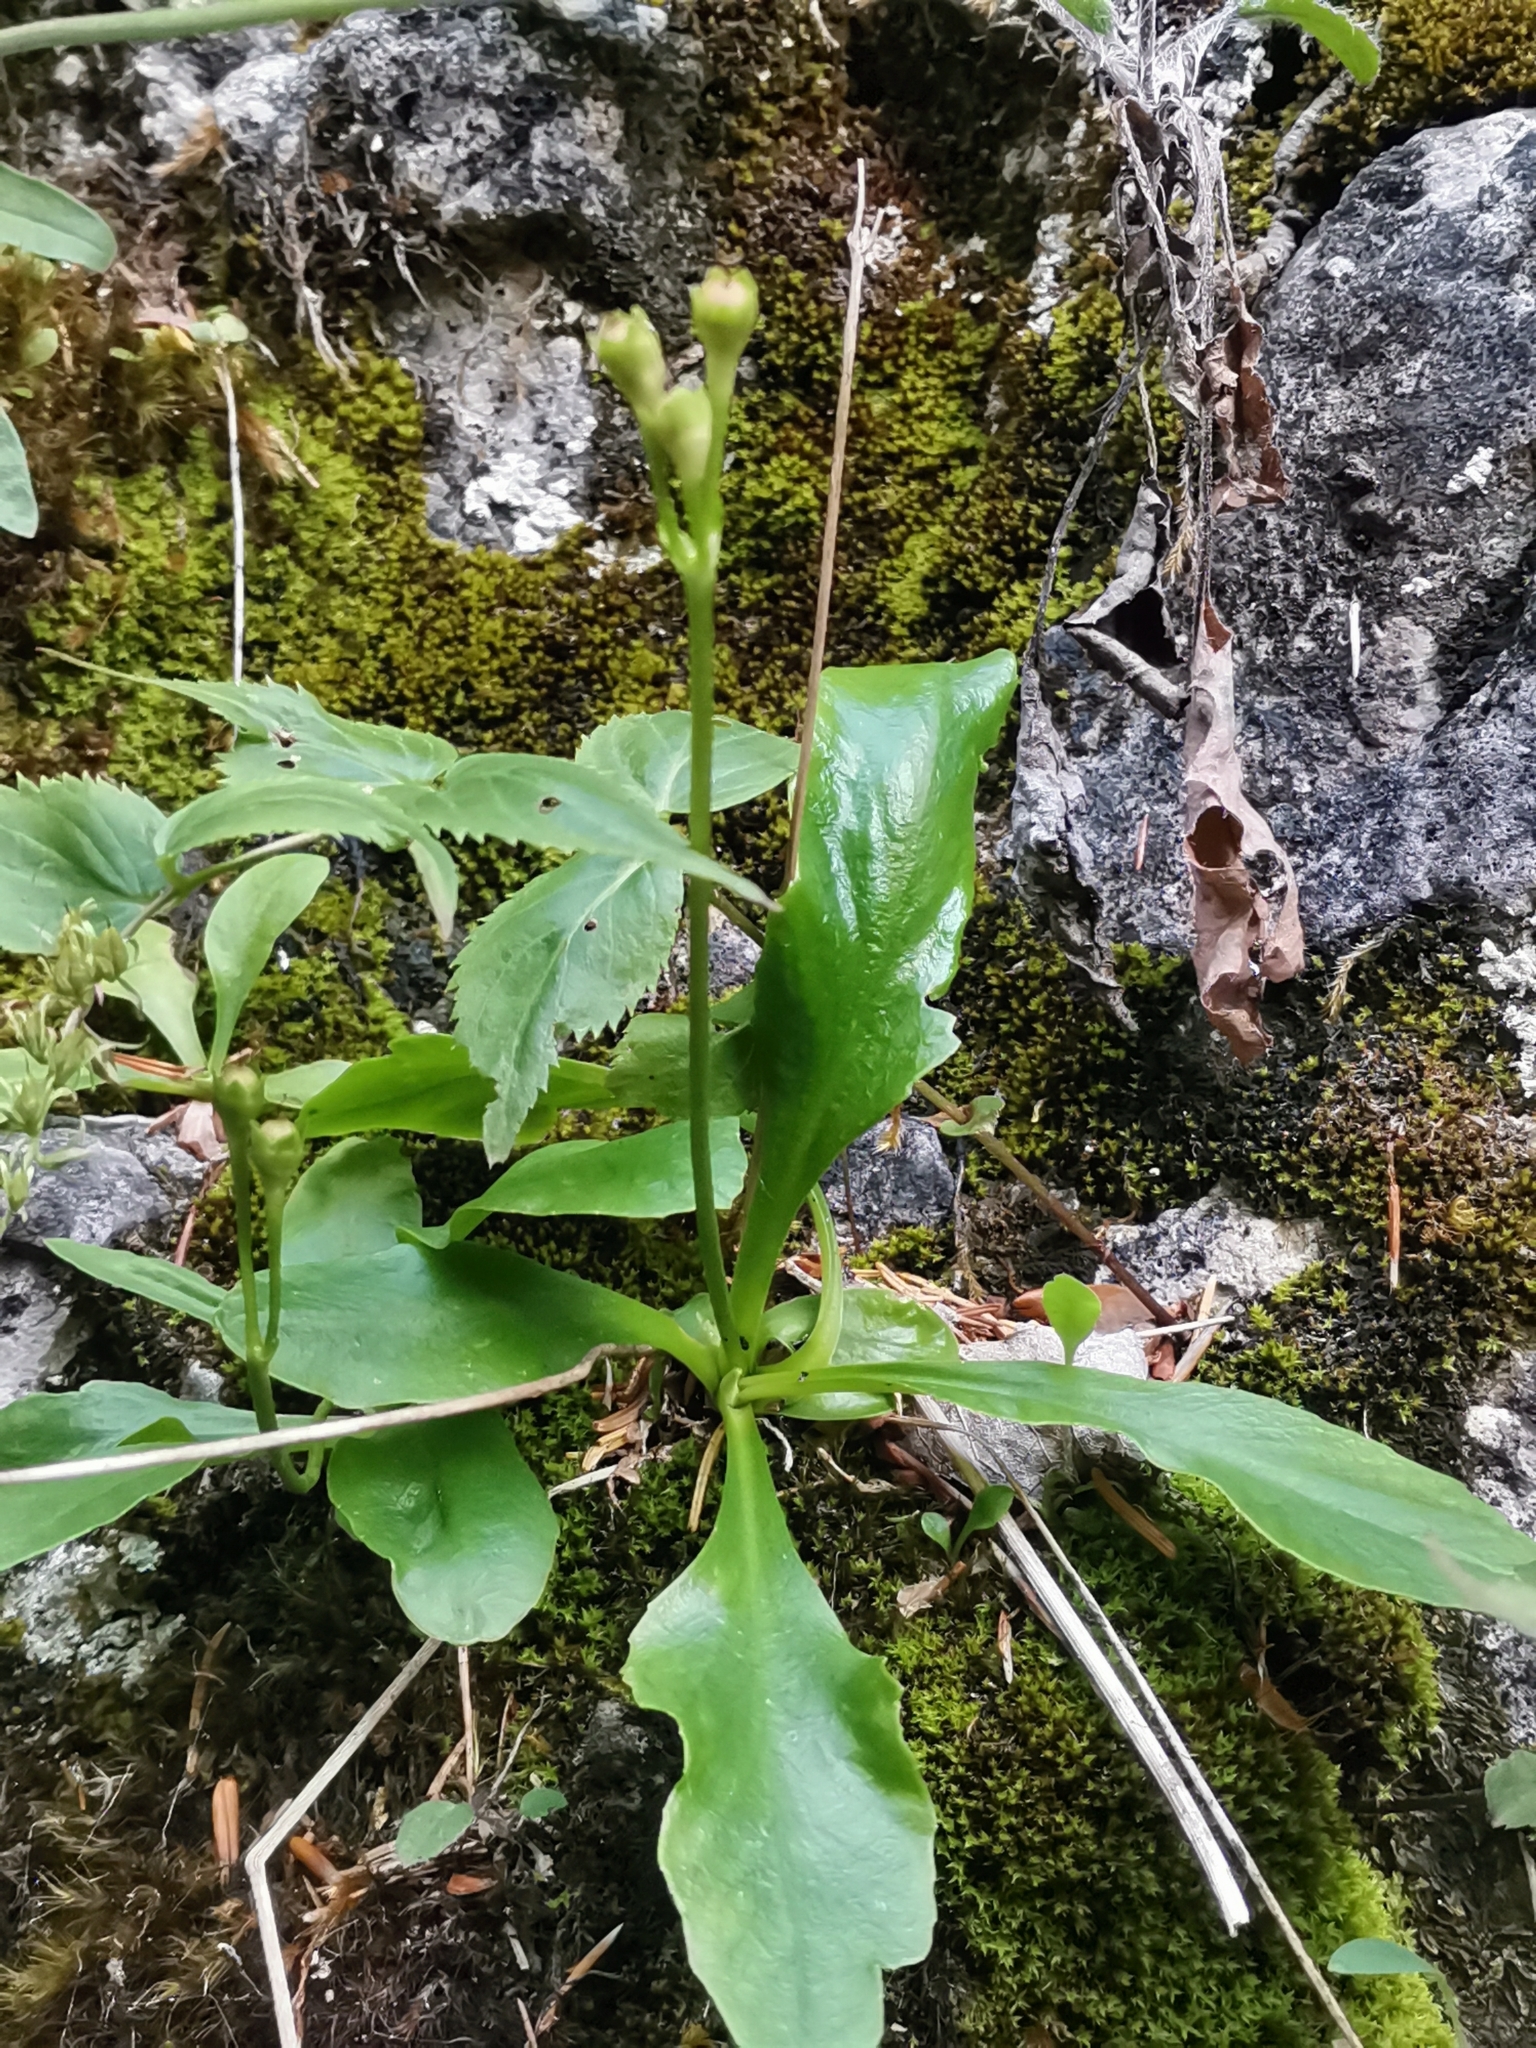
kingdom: Plantae
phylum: Tracheophyta
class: Magnoliopsida
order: Ericales
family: Primulaceae
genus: Primula
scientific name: Primula carniolica
